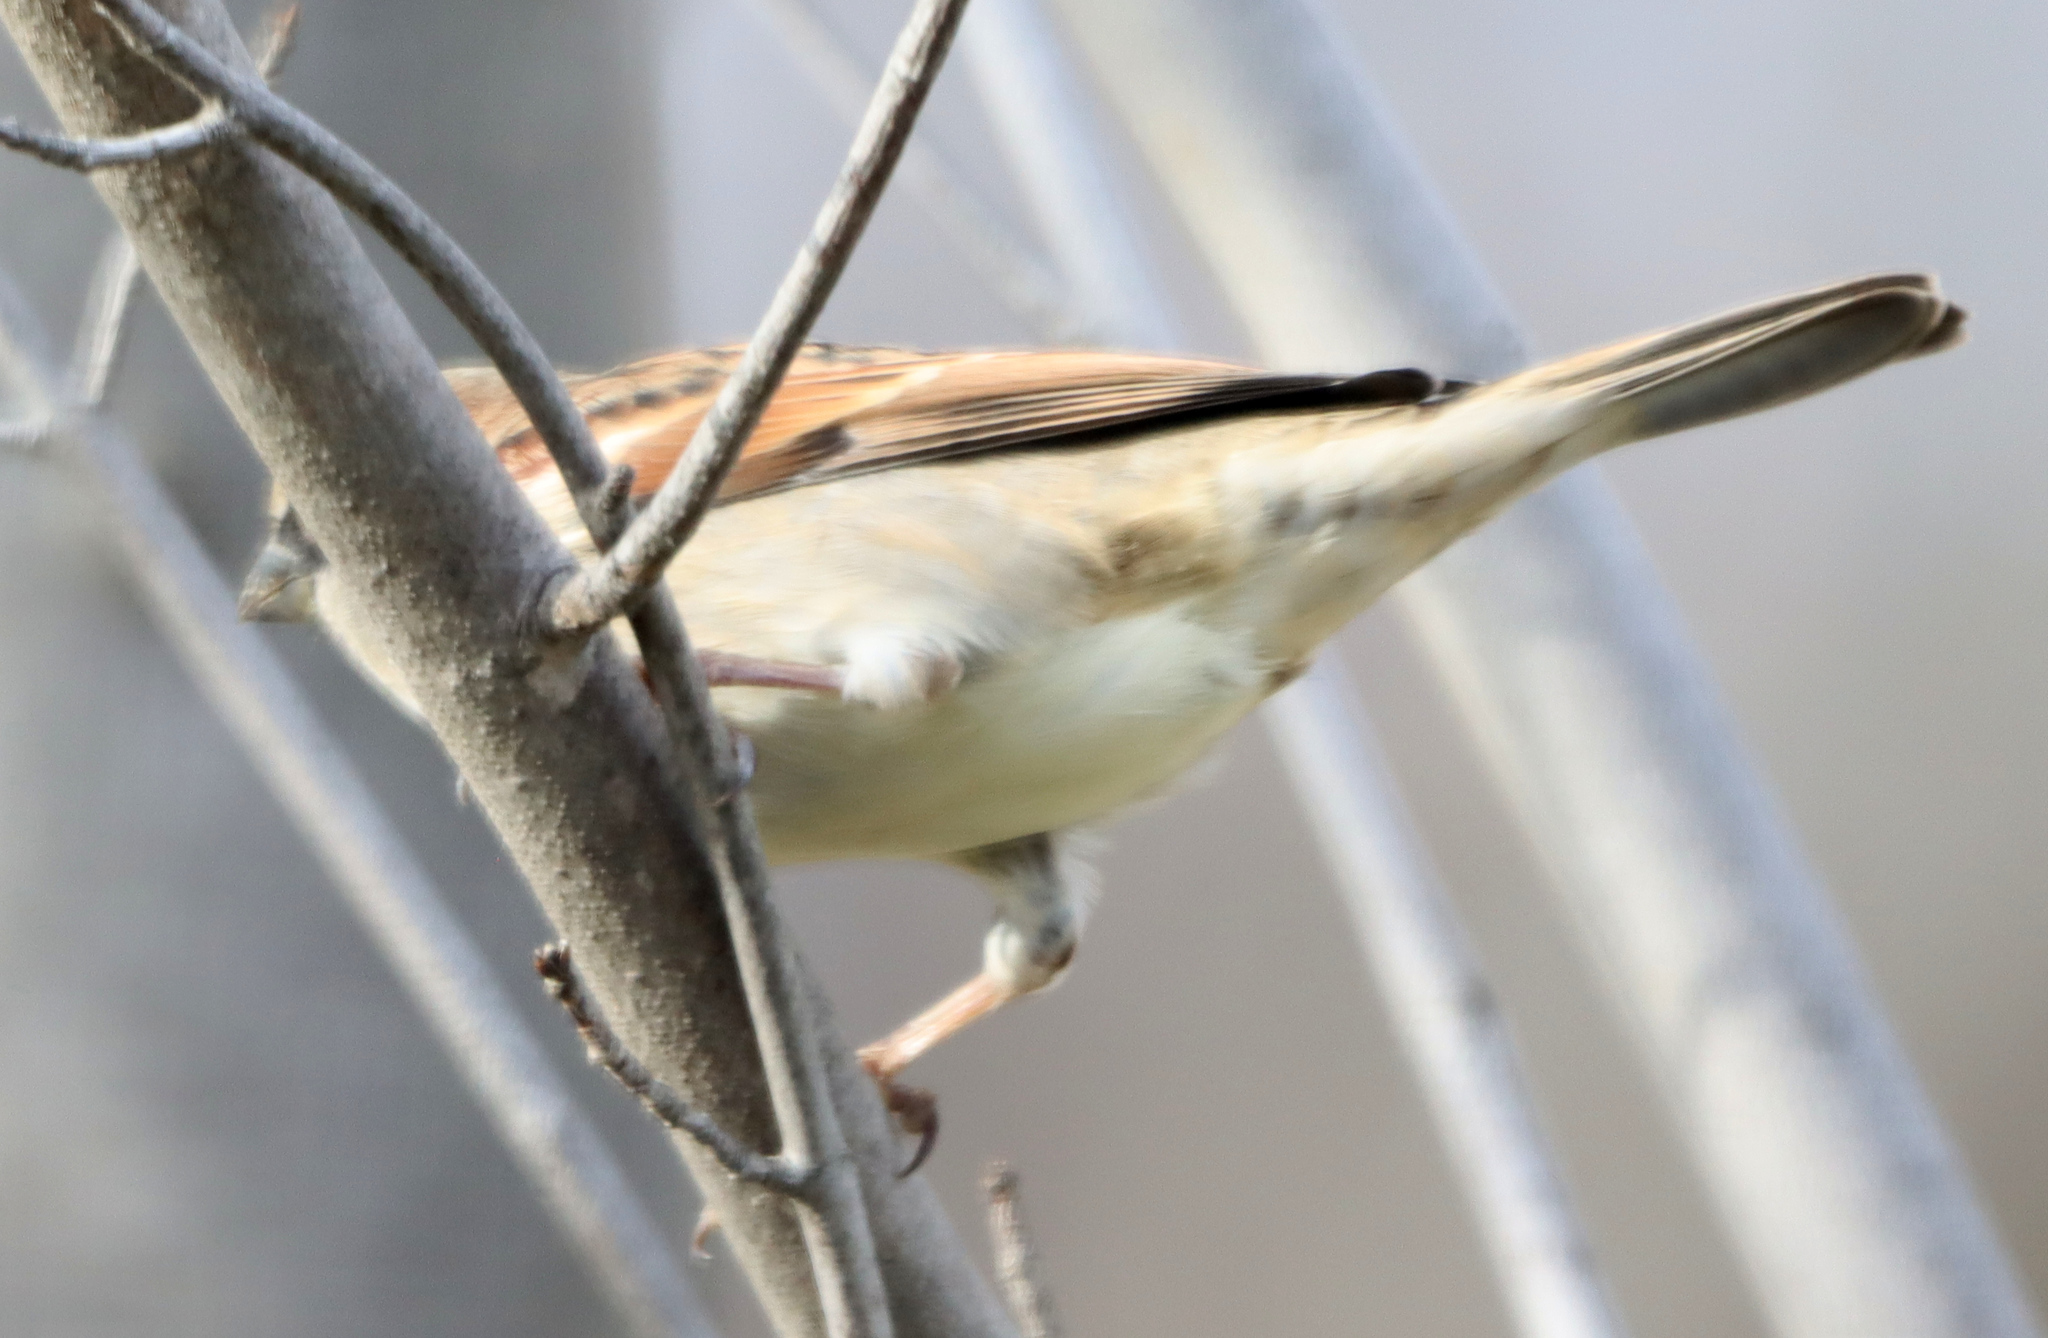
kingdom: Animalia
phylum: Chordata
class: Aves
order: Passeriformes
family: Passeridae
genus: Passer
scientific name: Passer domesticus
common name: House sparrow
